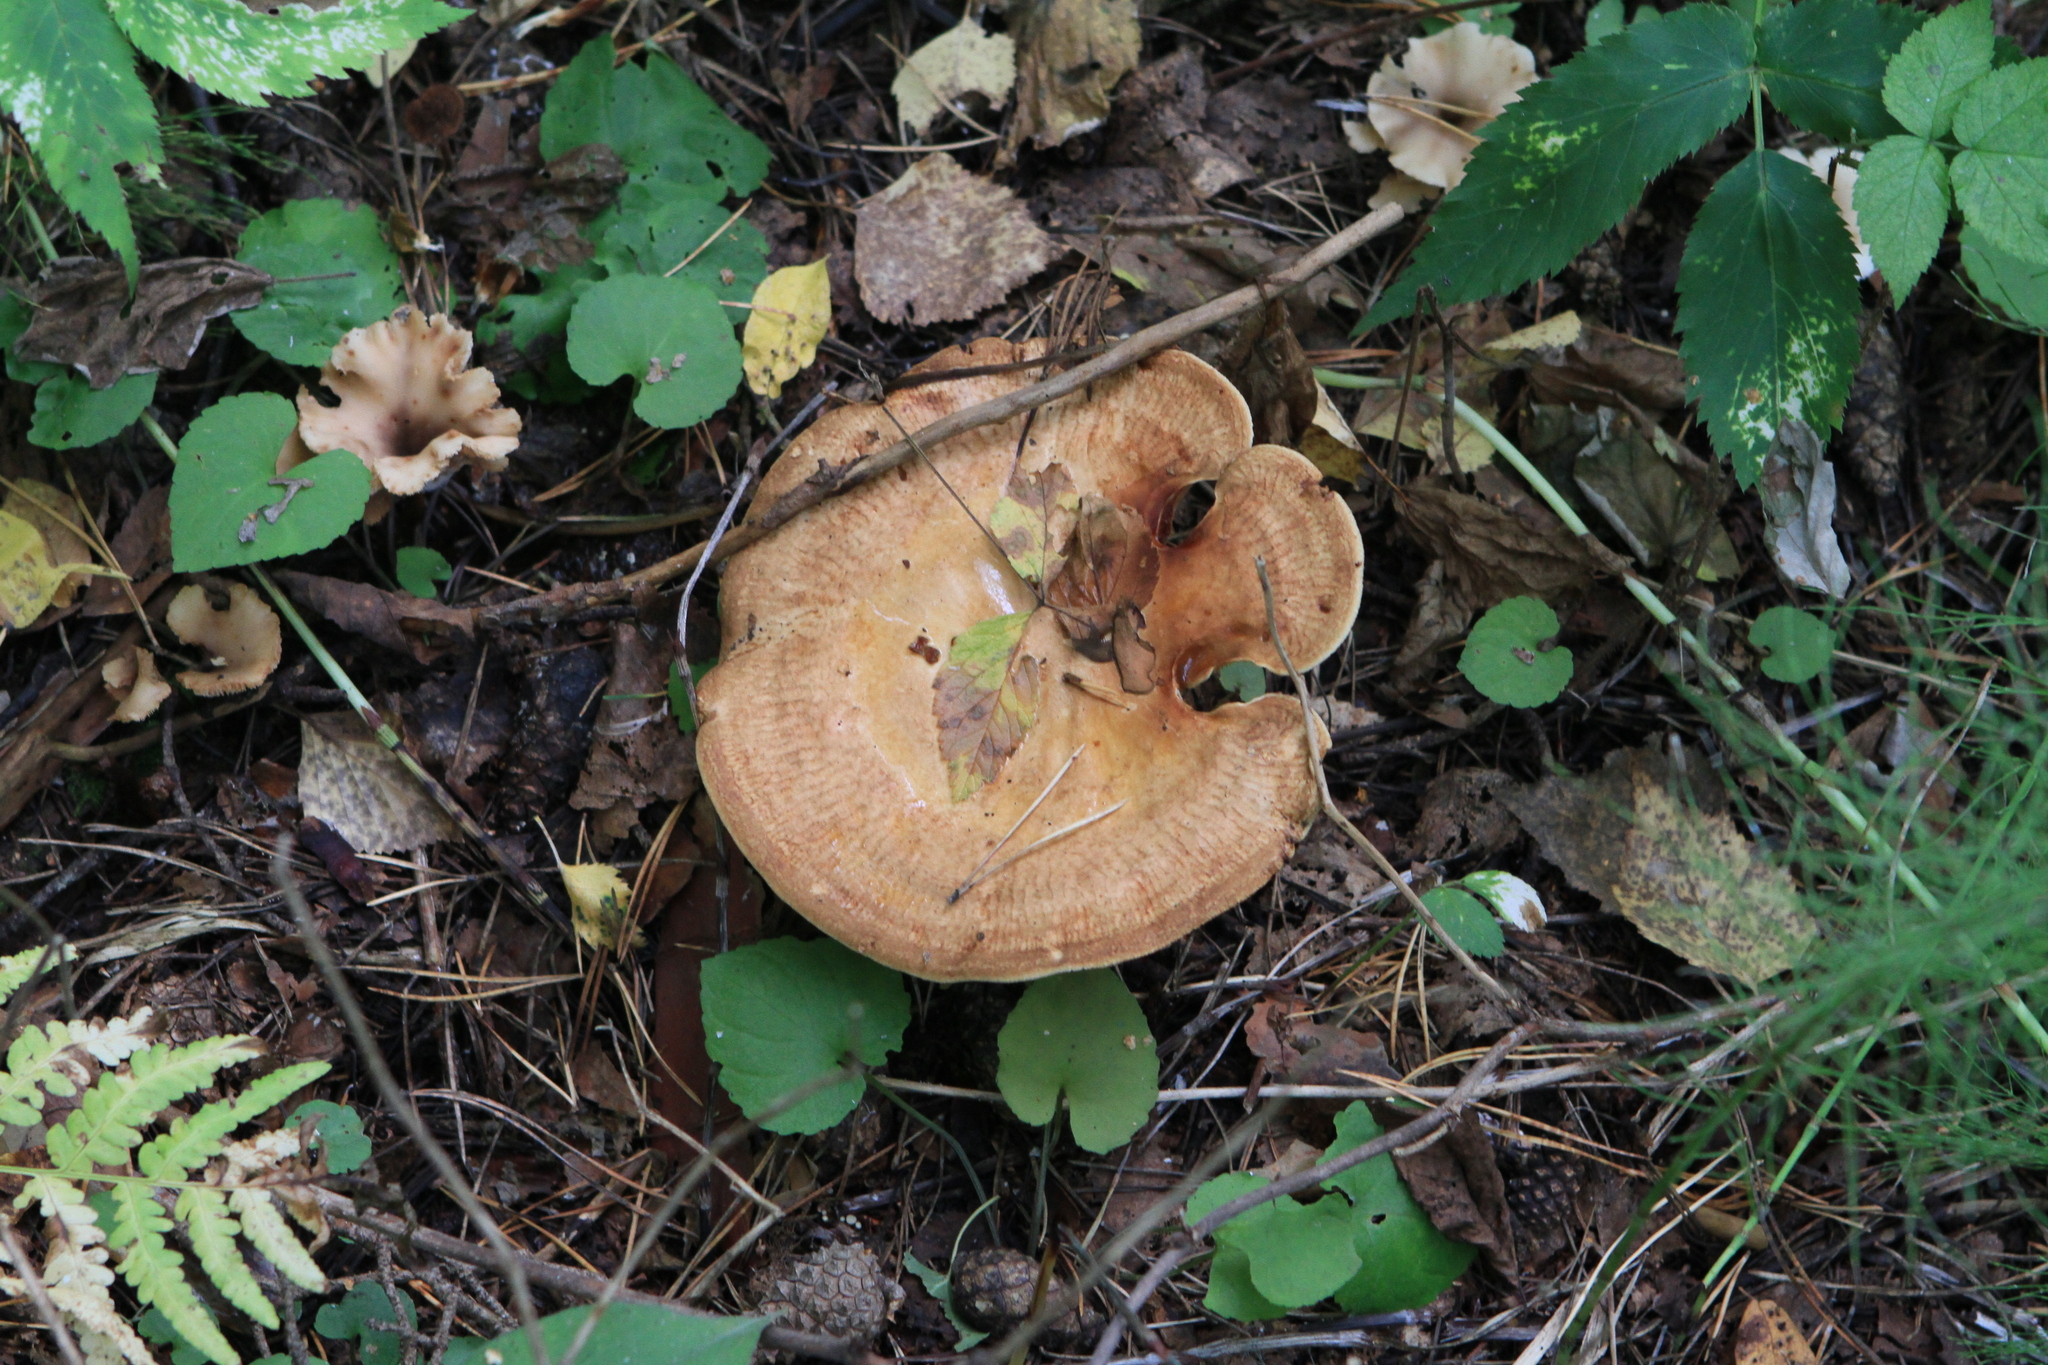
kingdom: Fungi
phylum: Basidiomycota
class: Agaricomycetes
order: Boletales
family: Paxillaceae
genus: Paxillus
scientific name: Paxillus involutus
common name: Brown roll rim
